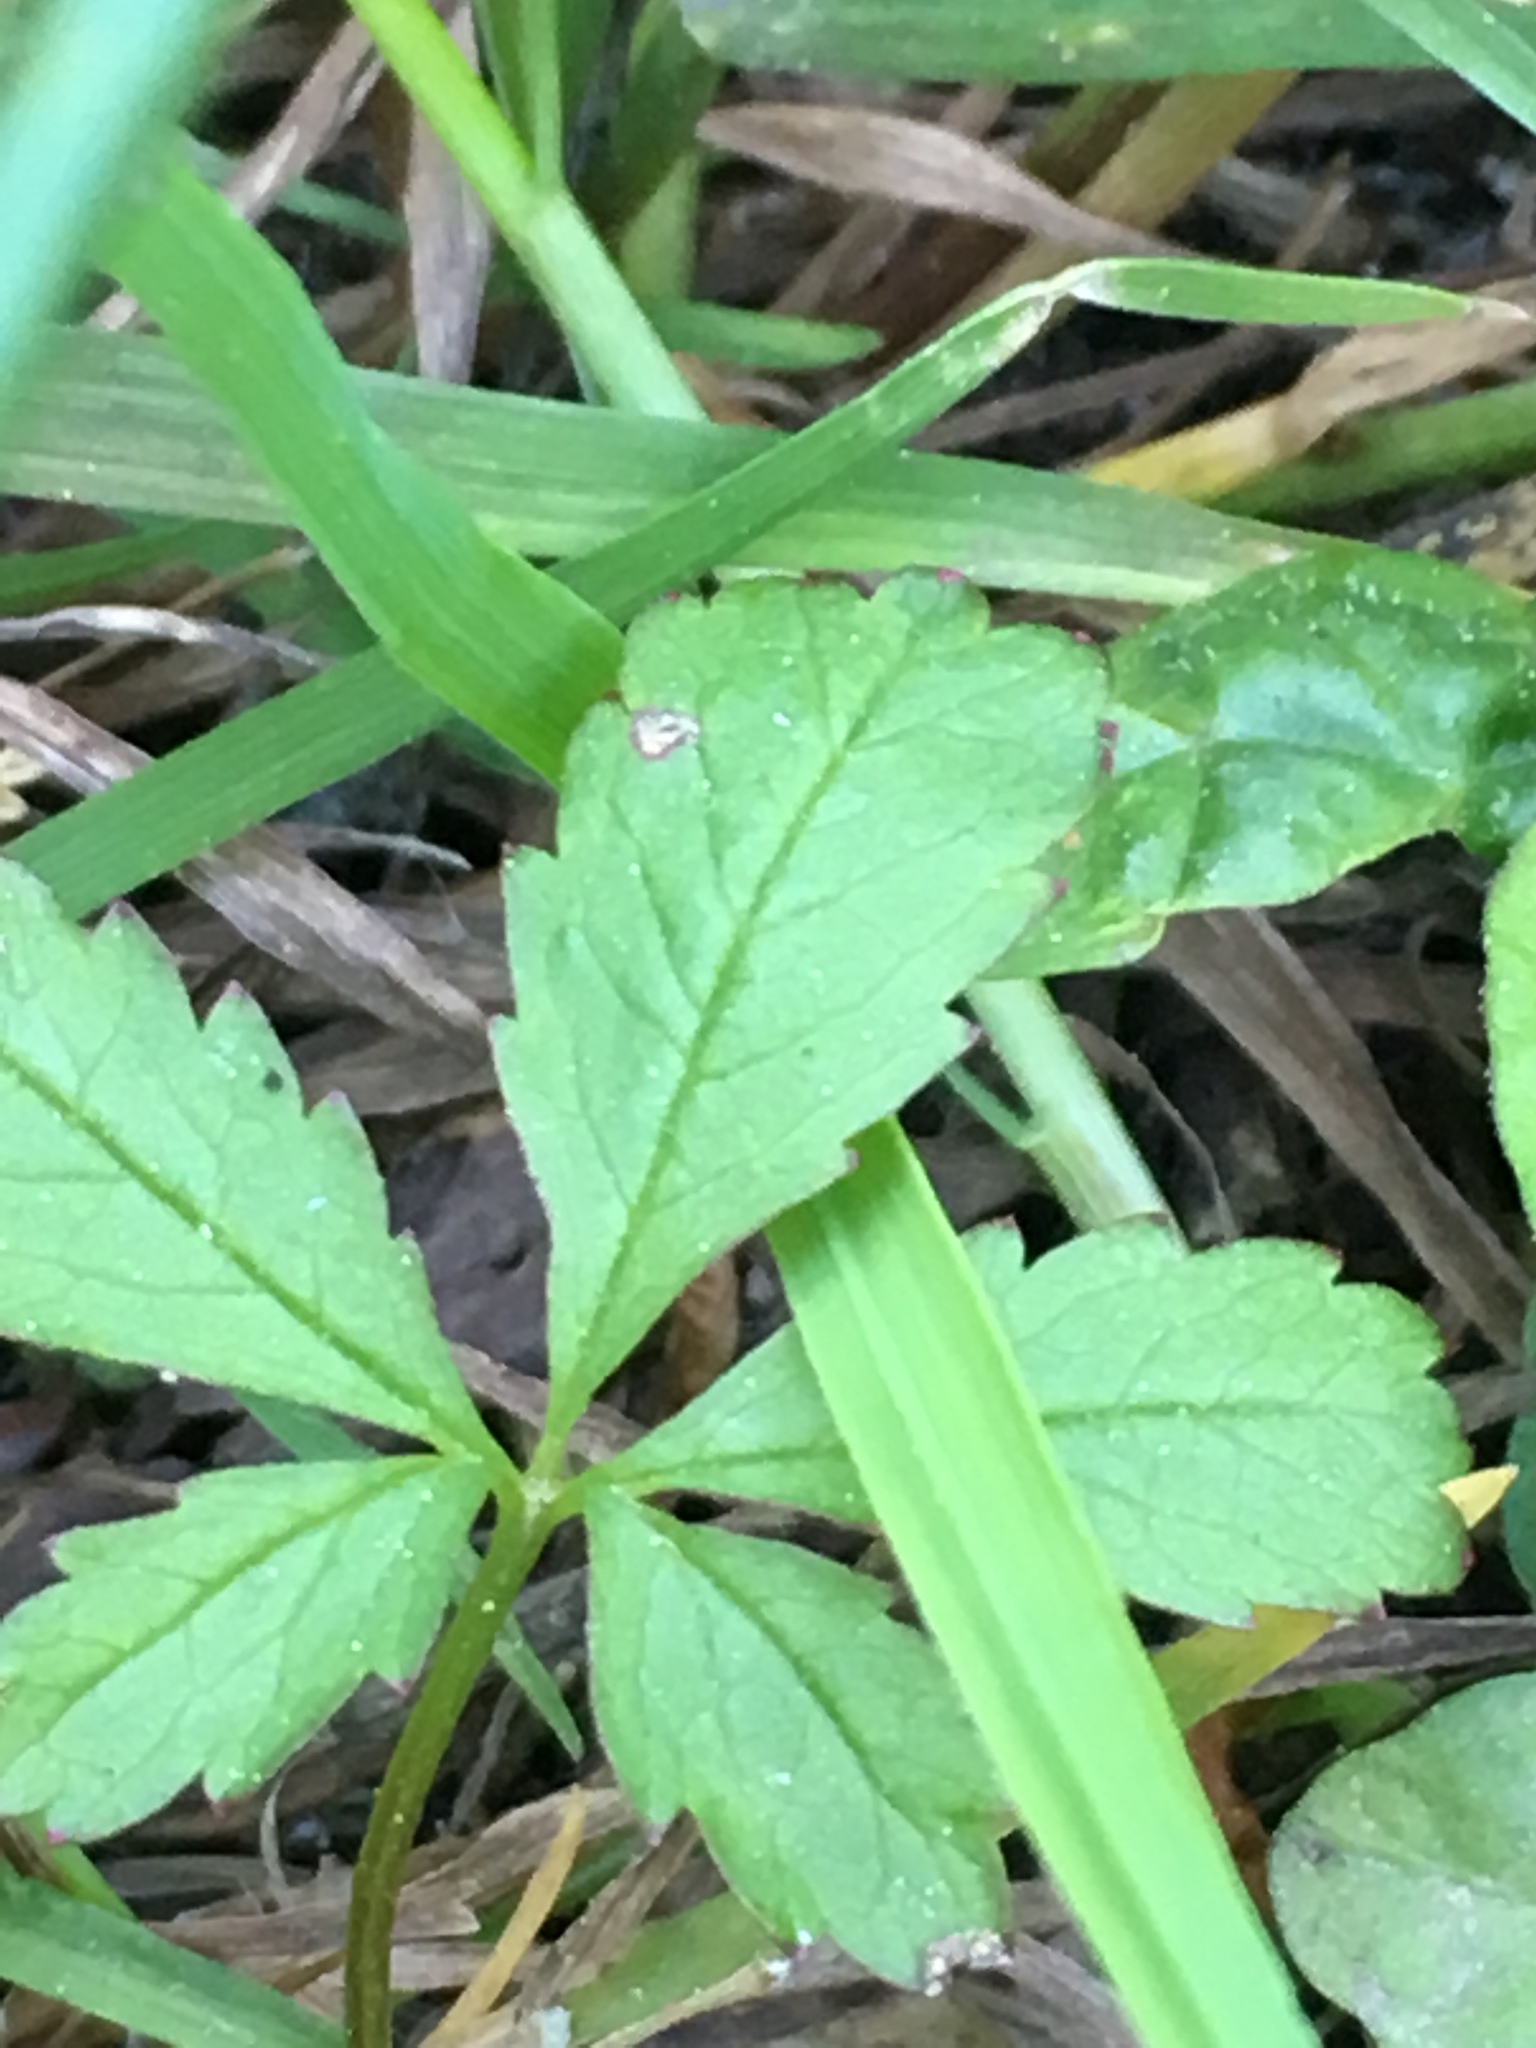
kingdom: Plantae
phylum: Tracheophyta
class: Magnoliopsida
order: Rosales
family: Rosaceae
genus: Potentilla
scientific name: Potentilla reptans
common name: Creeping cinquefoil
